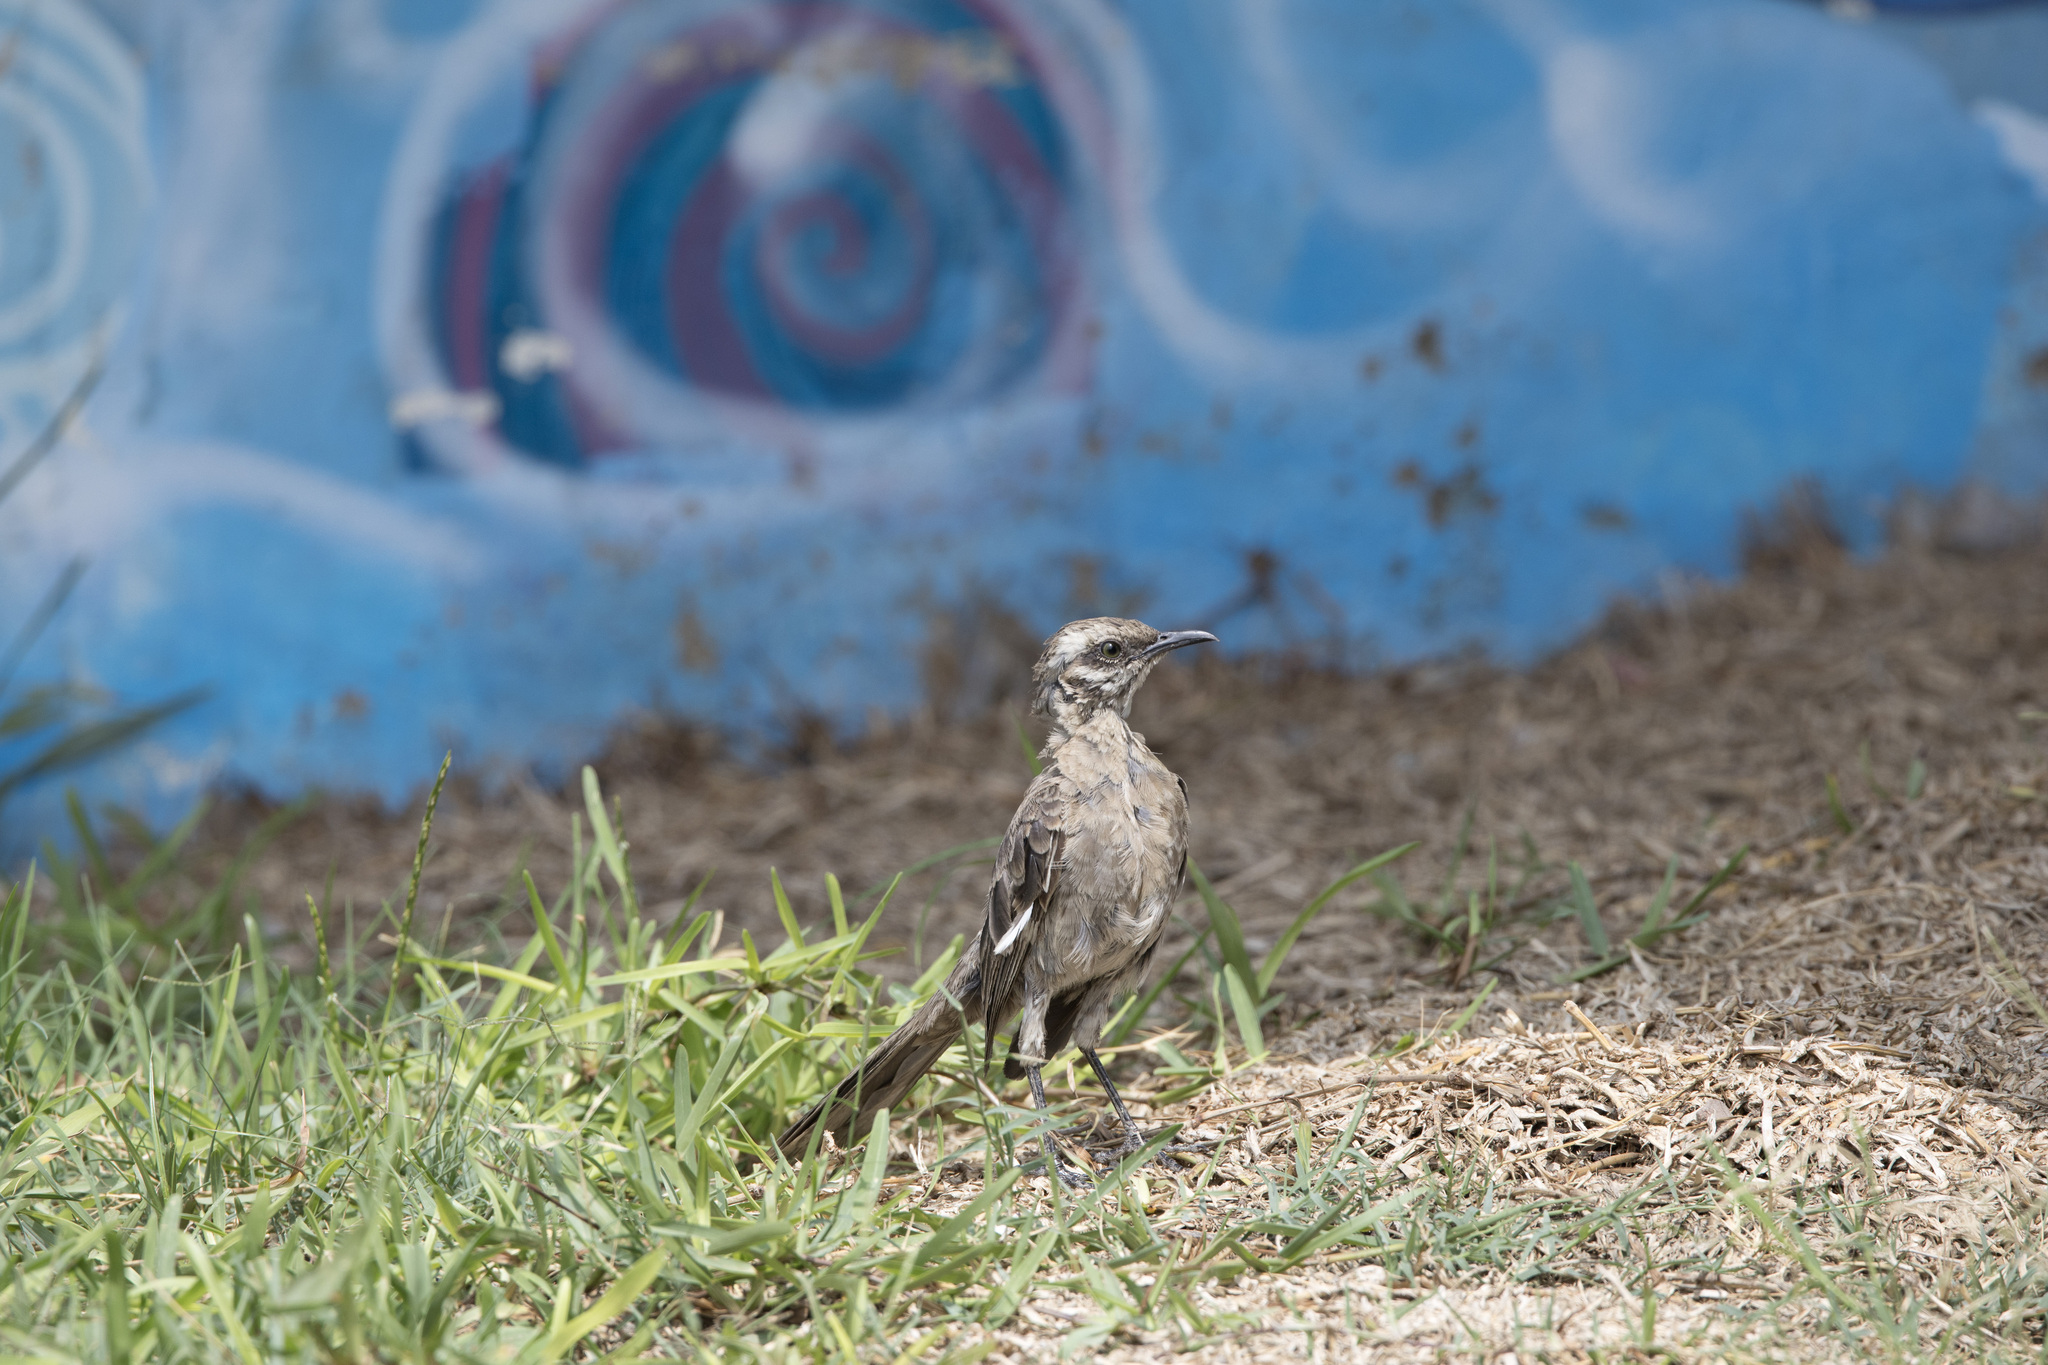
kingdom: Animalia
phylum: Chordata
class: Aves
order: Passeriformes
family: Mimidae
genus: Mimus
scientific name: Mimus longicaudatus
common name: Long-tailed mockingbird
